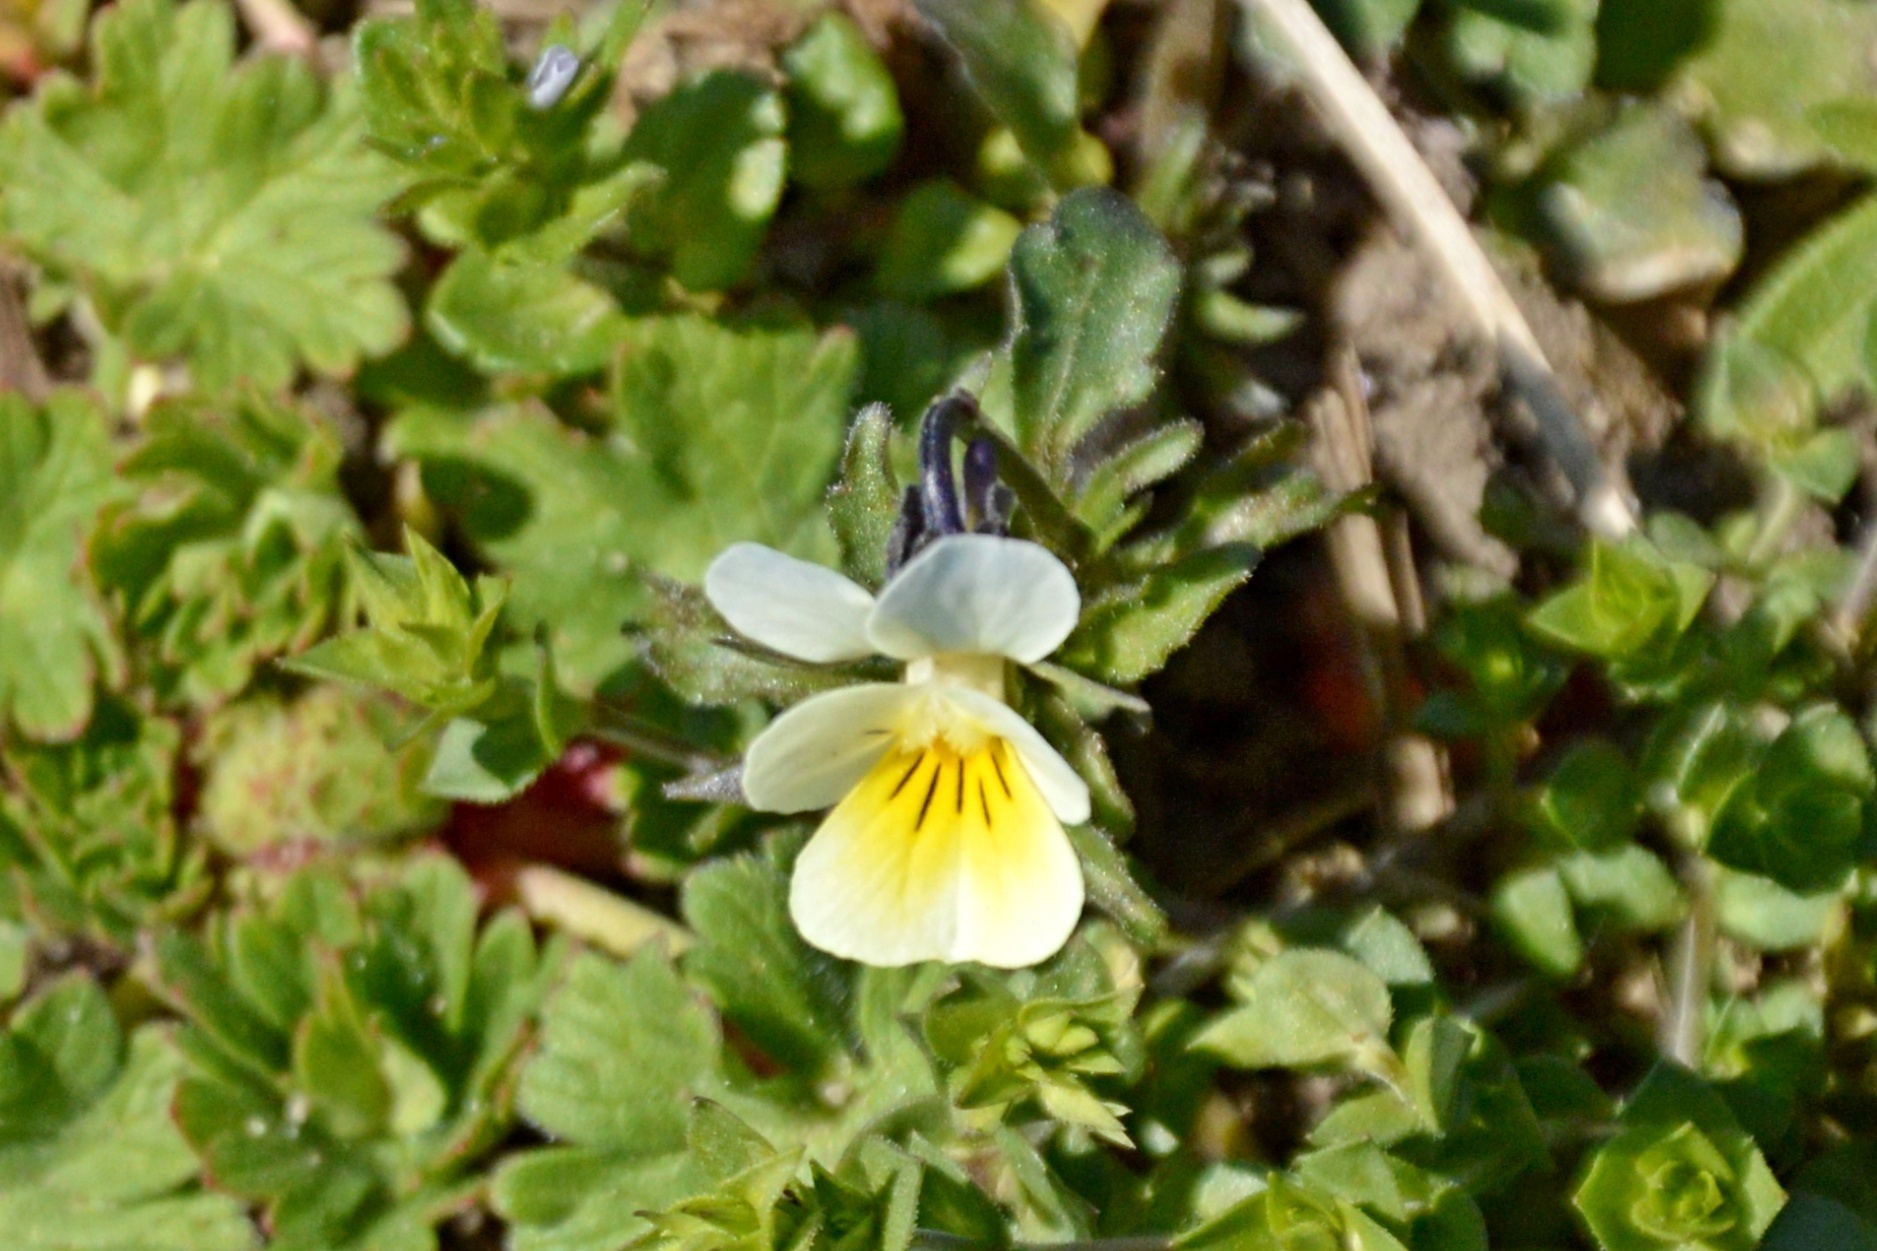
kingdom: Plantae
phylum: Tracheophyta
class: Magnoliopsida
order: Malpighiales
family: Violaceae
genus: Viola
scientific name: Viola arvensis
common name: Field pansy
